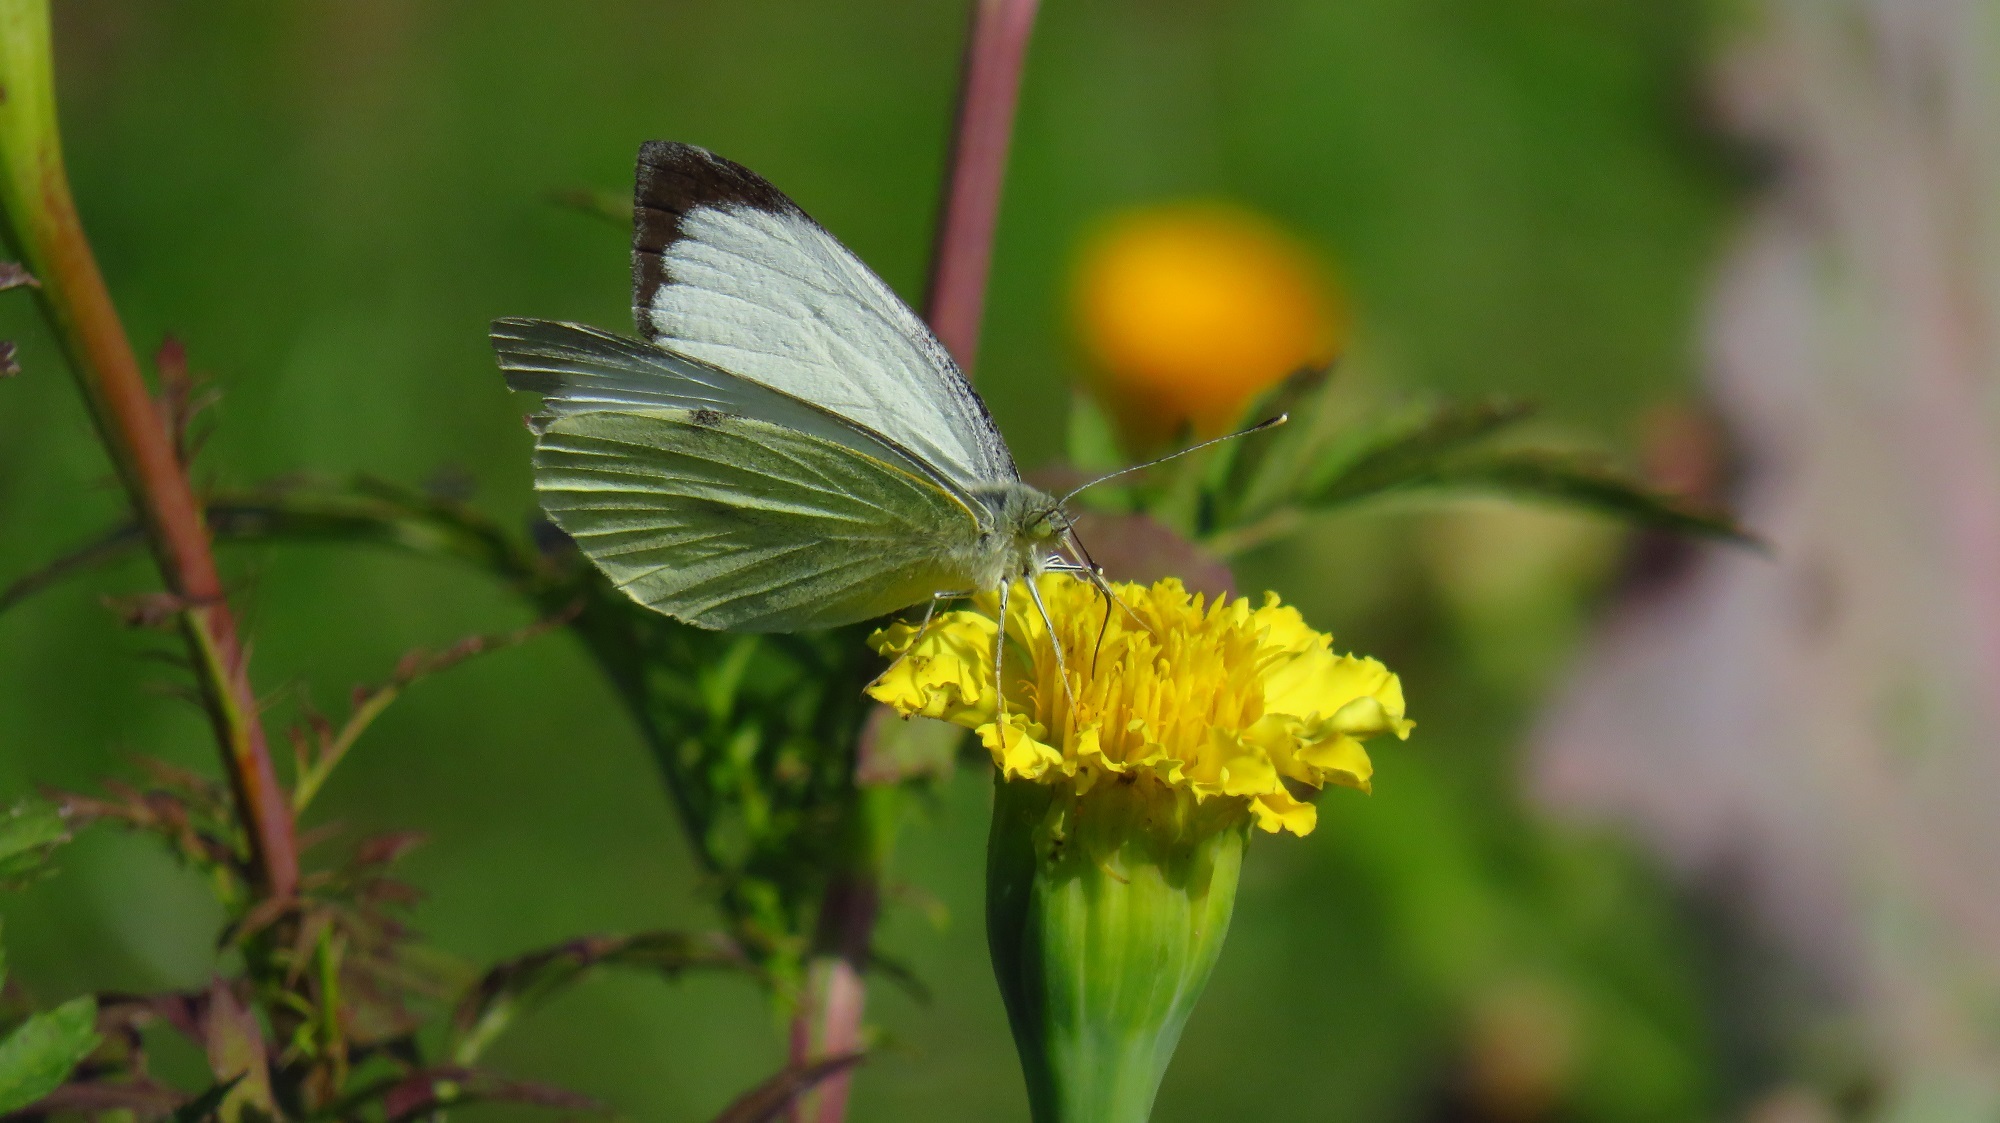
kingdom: Animalia
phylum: Arthropoda
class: Insecta
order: Lepidoptera
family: Pieridae
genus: Pieris
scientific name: Pieris brassicae
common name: Large white
